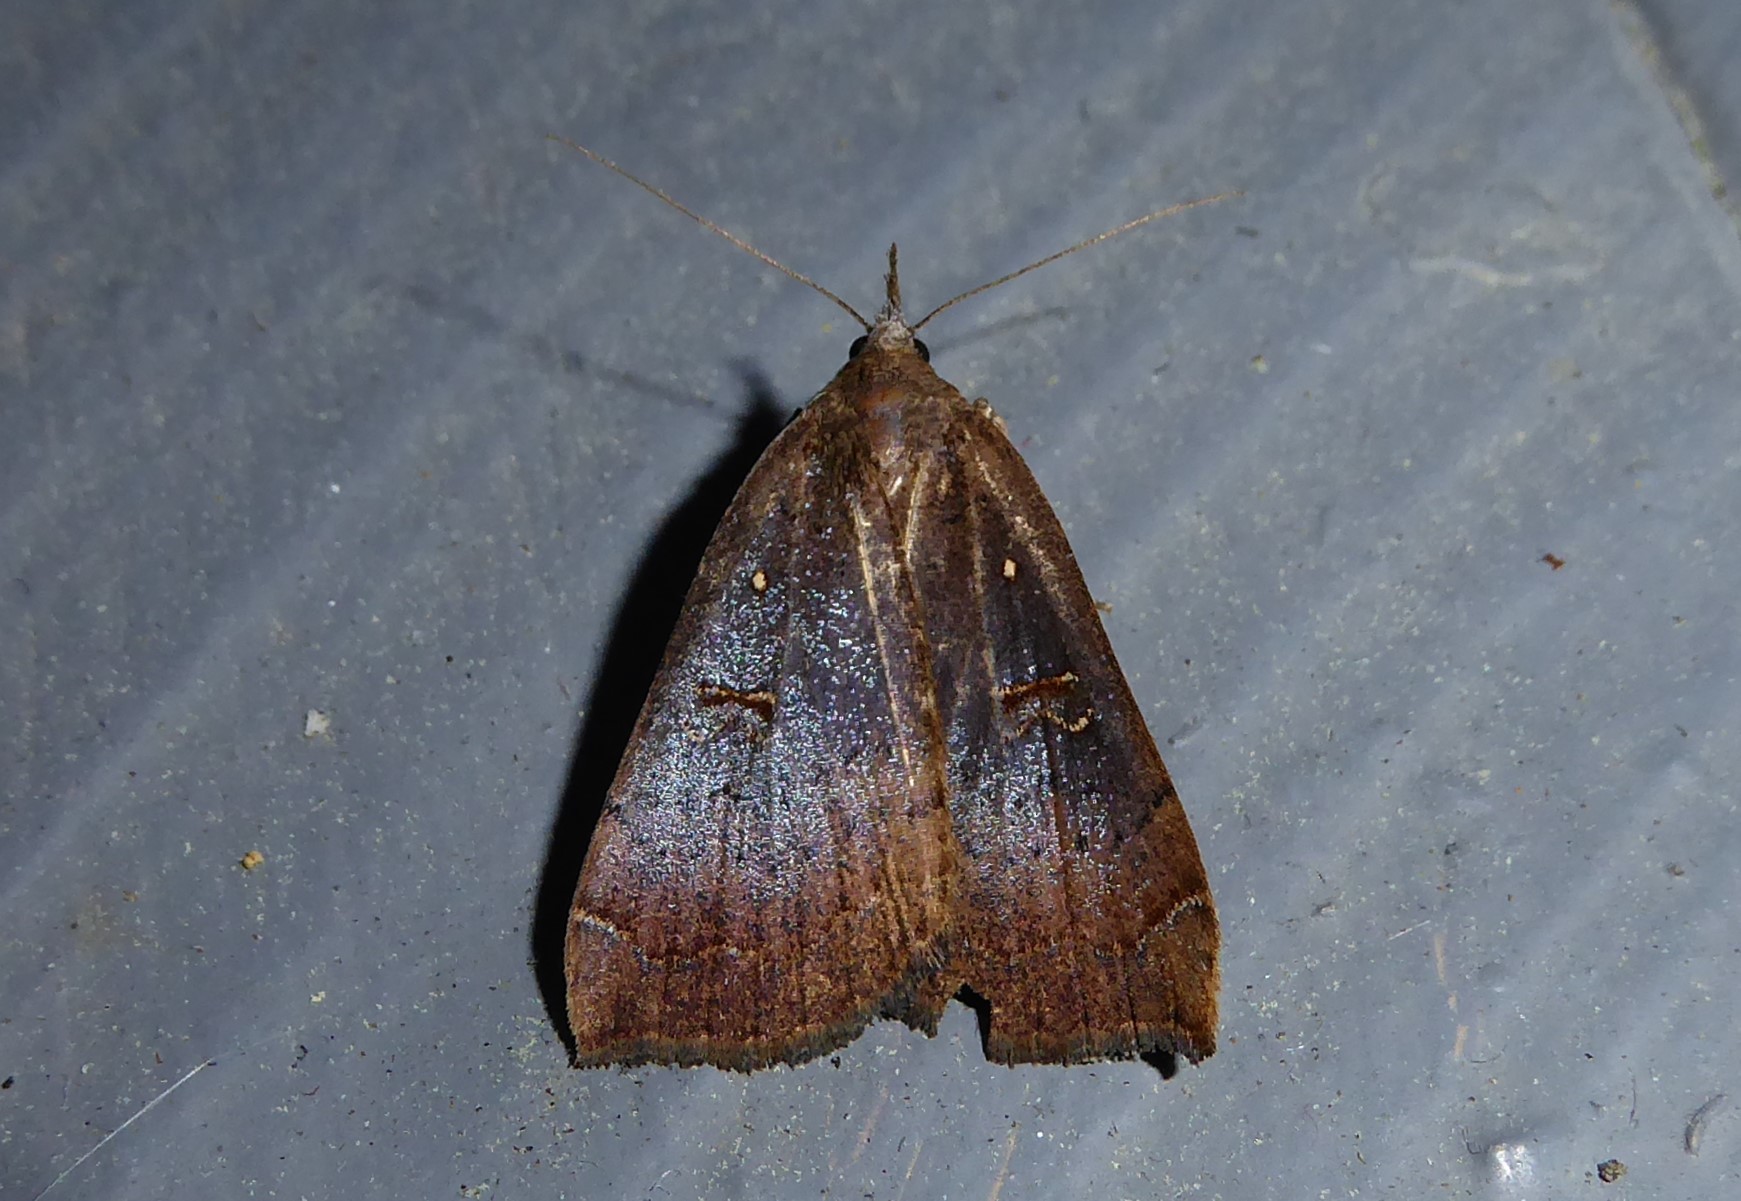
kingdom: Animalia
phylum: Arthropoda
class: Insecta
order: Lepidoptera
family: Erebidae
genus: Rhapsa
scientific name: Rhapsa scotosialis
